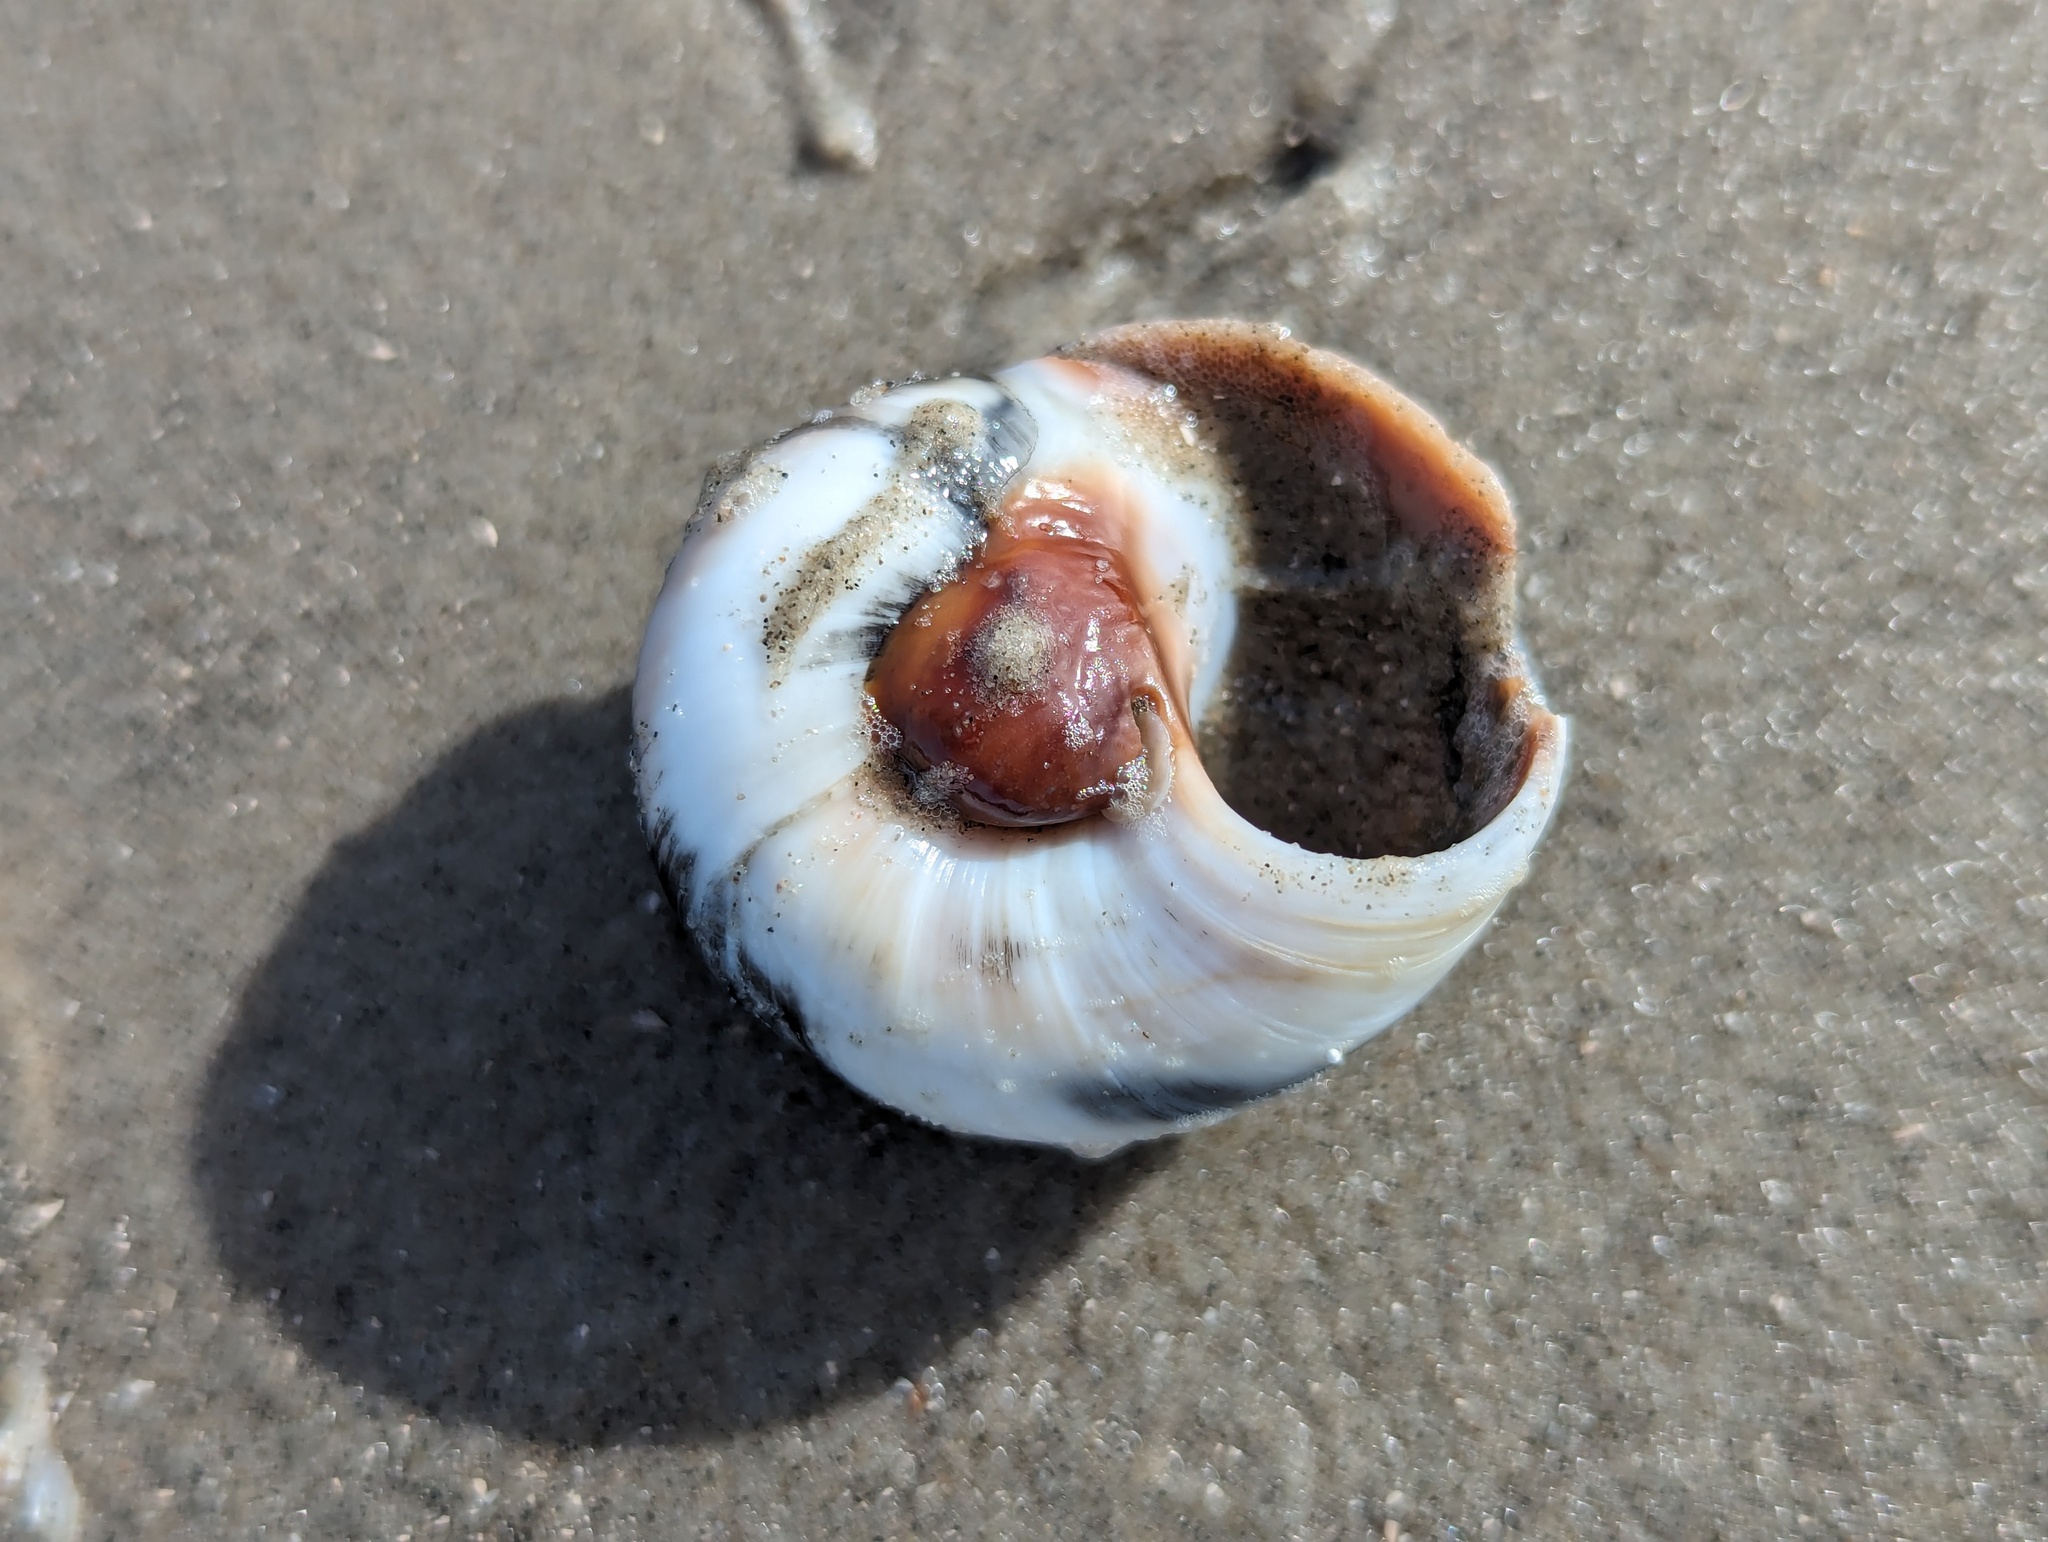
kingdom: Animalia
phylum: Mollusca
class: Gastropoda
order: Littorinimorpha
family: Naticidae
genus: Neverita
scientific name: Neverita duplicata
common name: Lobed moonsnail
